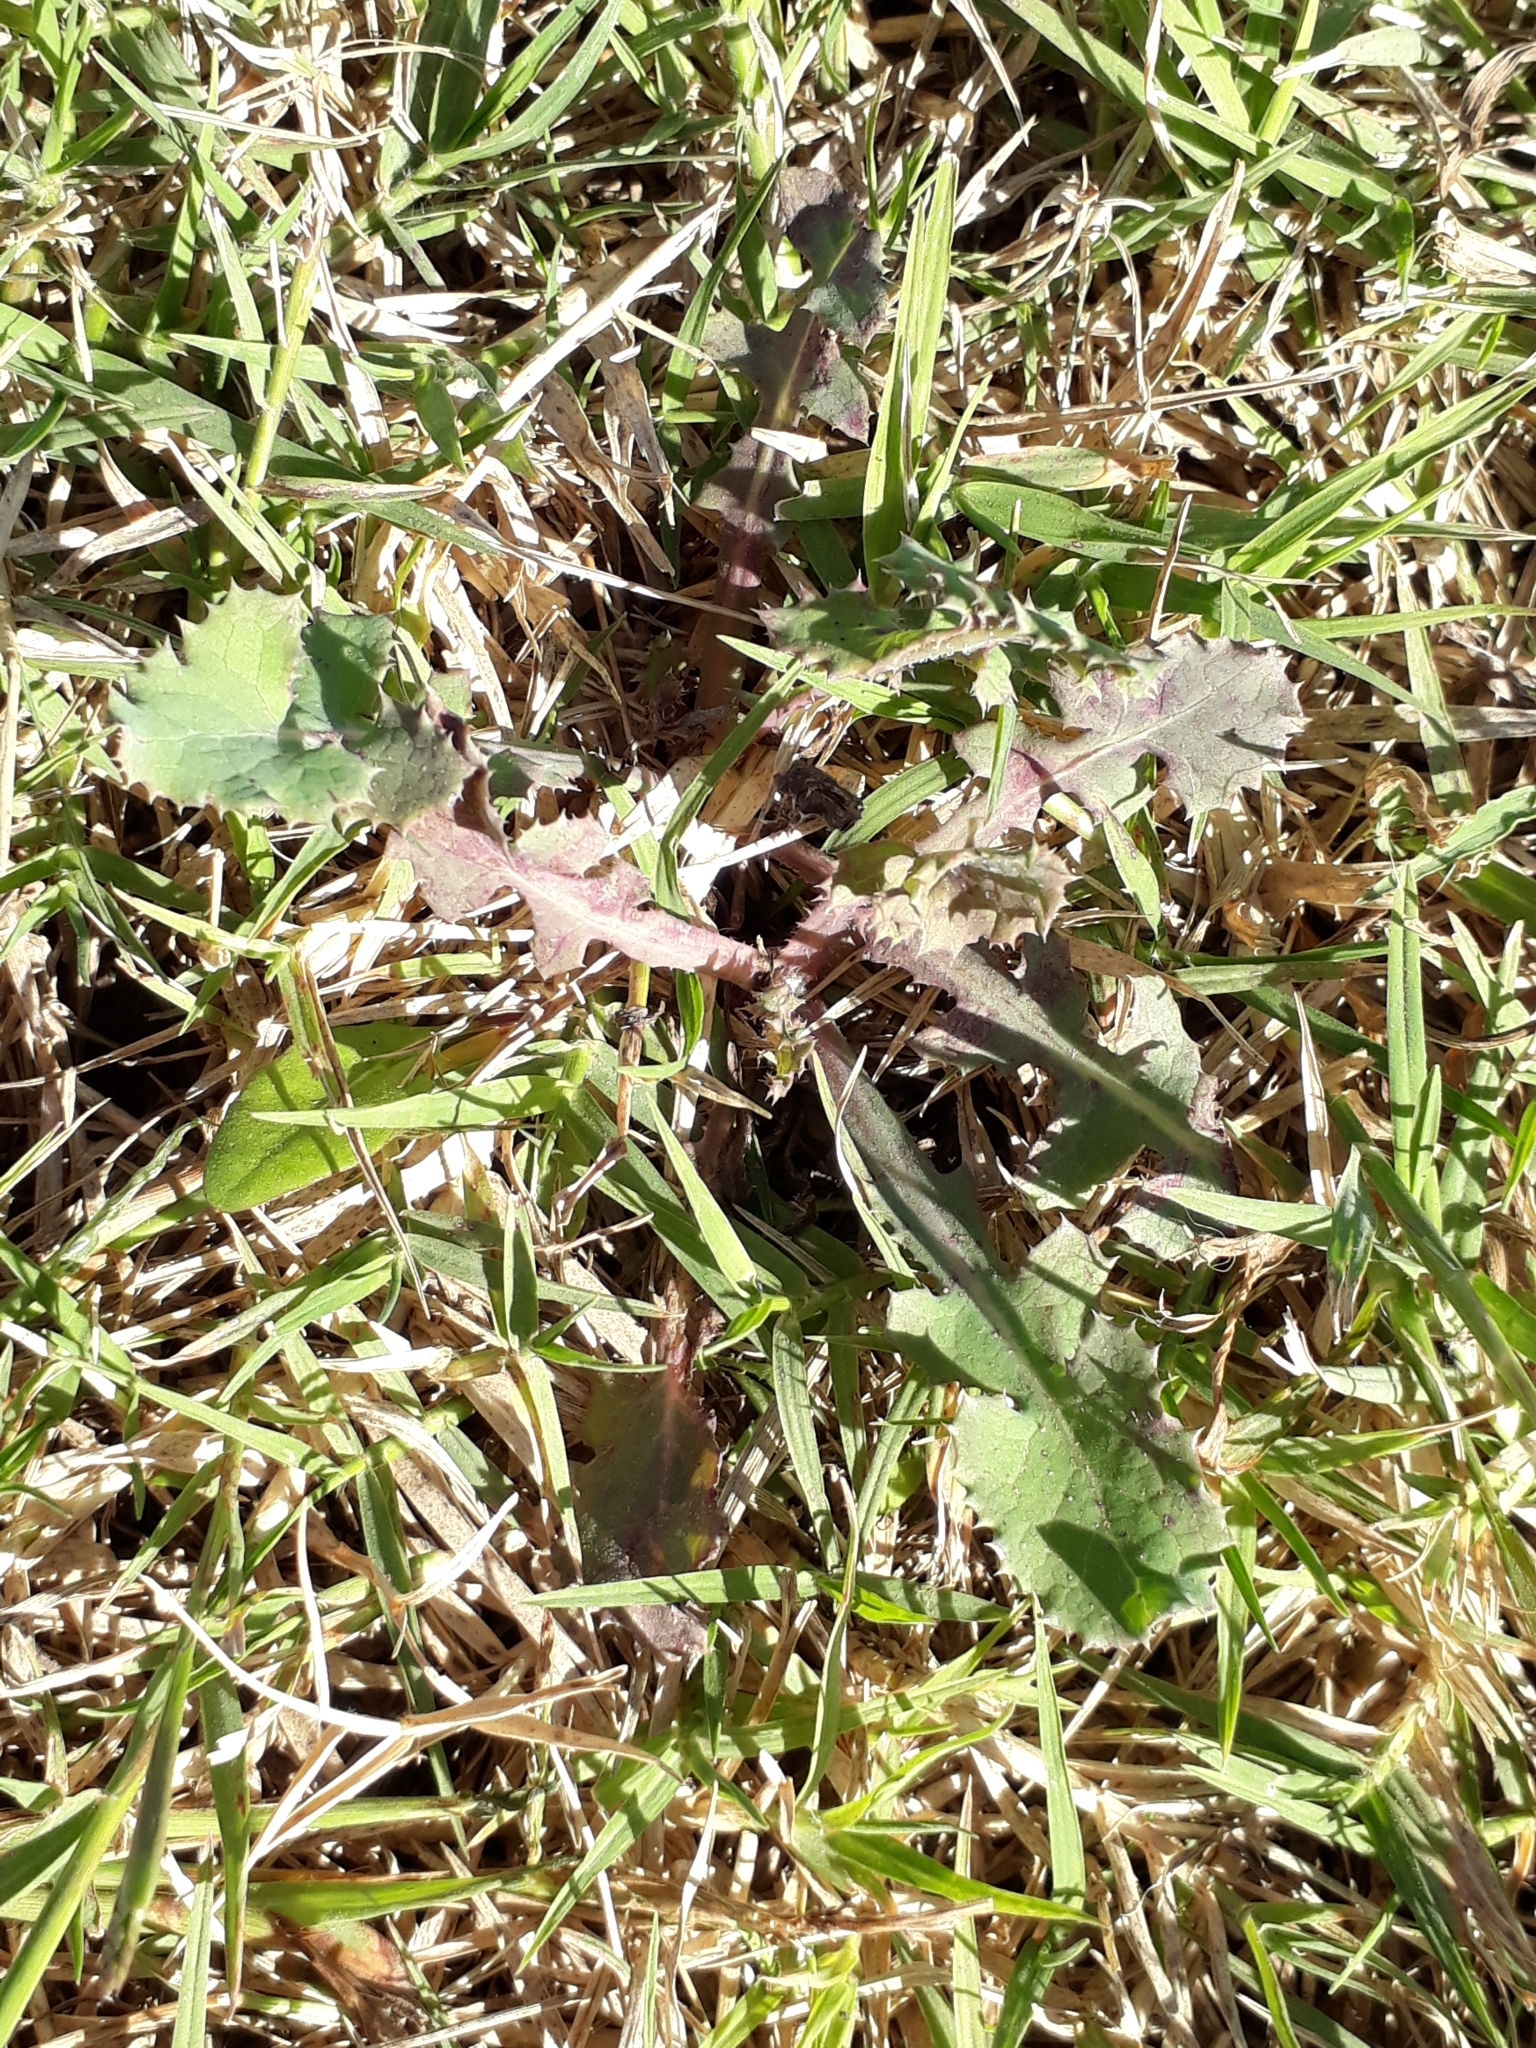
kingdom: Plantae
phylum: Tracheophyta
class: Magnoliopsida
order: Asterales
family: Asteraceae
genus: Sonchus
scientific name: Sonchus oleraceus
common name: Common sowthistle
